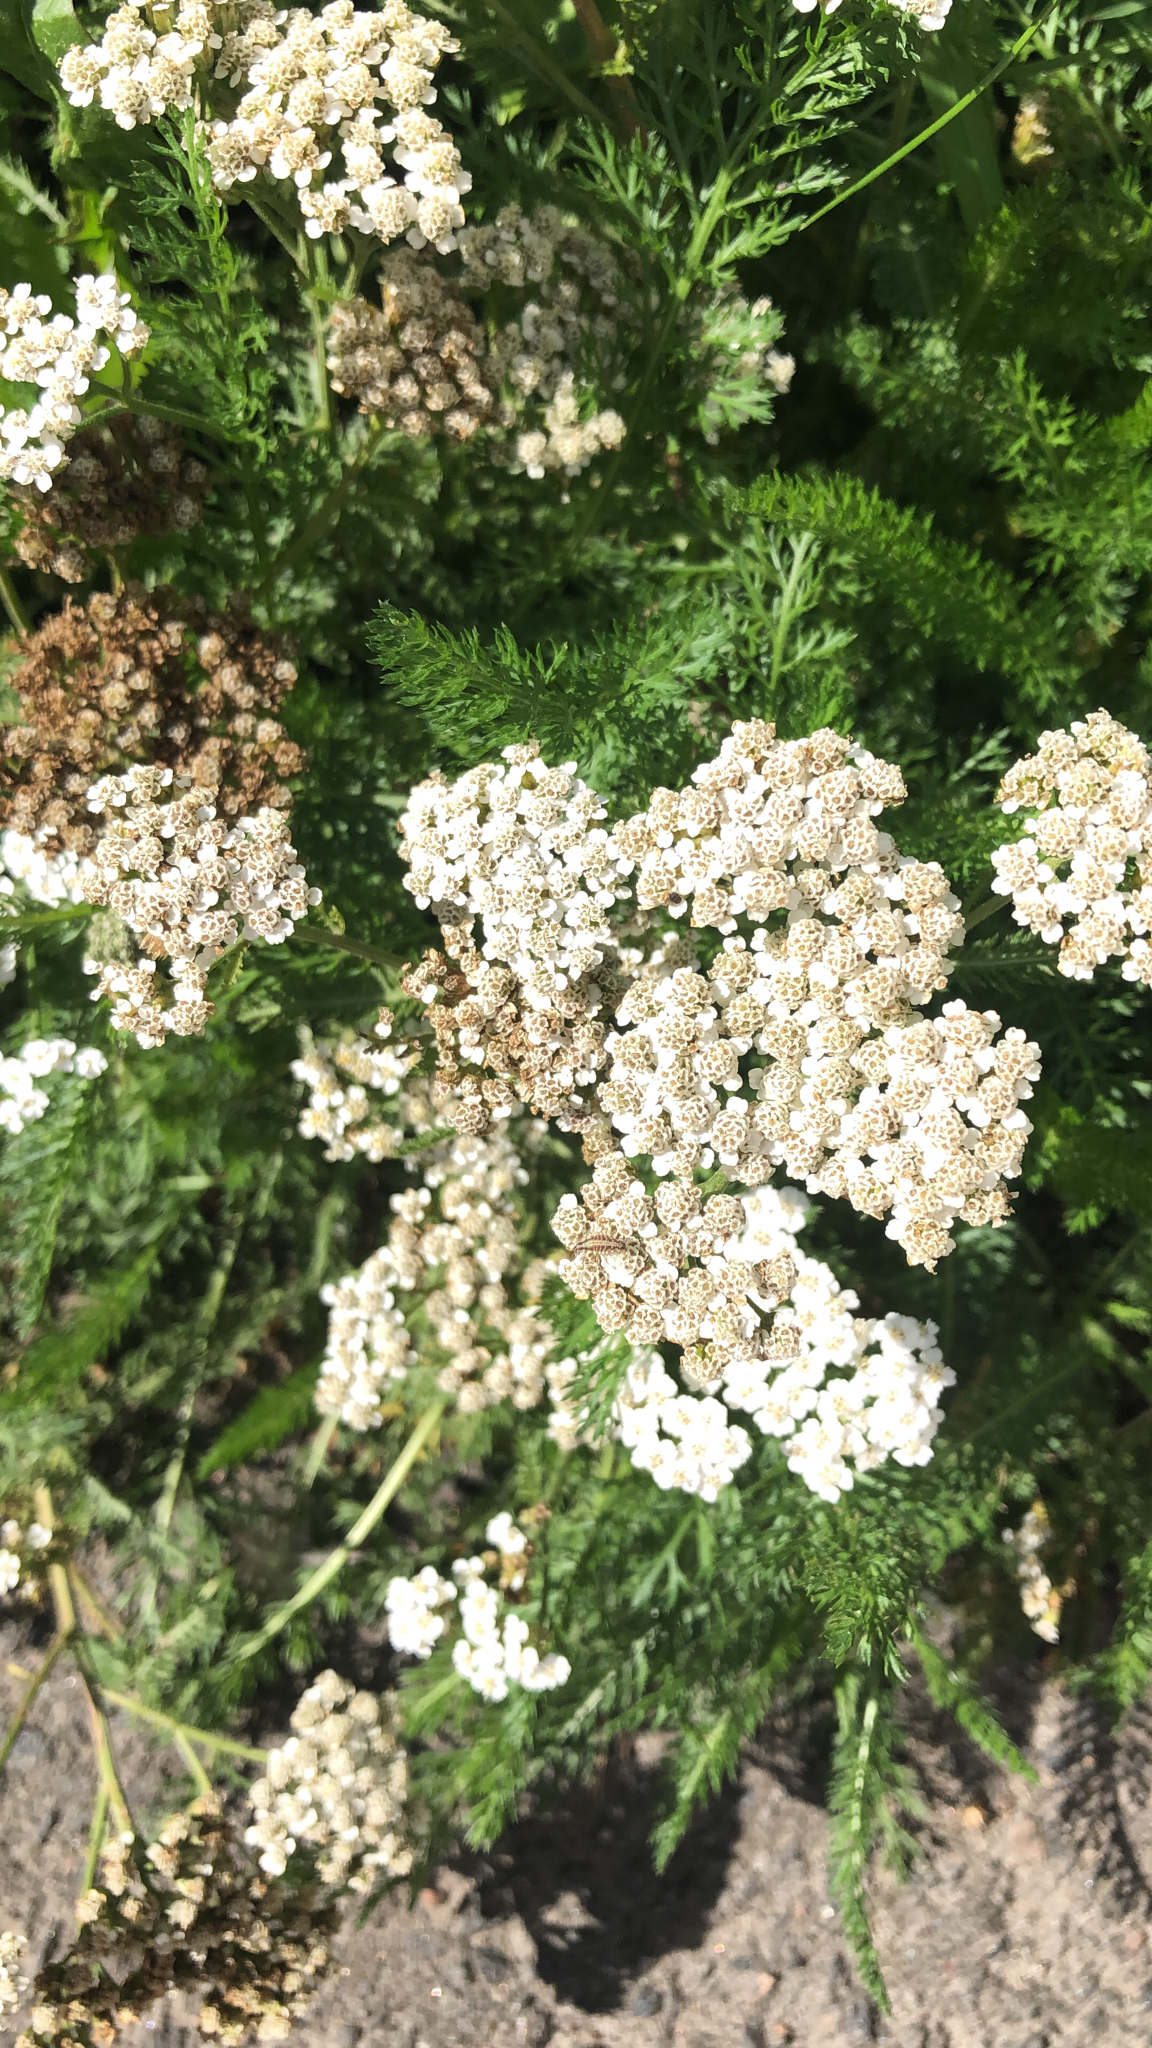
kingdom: Plantae
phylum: Tracheophyta
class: Magnoliopsida
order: Asterales
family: Asteraceae
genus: Achillea
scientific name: Achillea millefolium
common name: Yarrow
